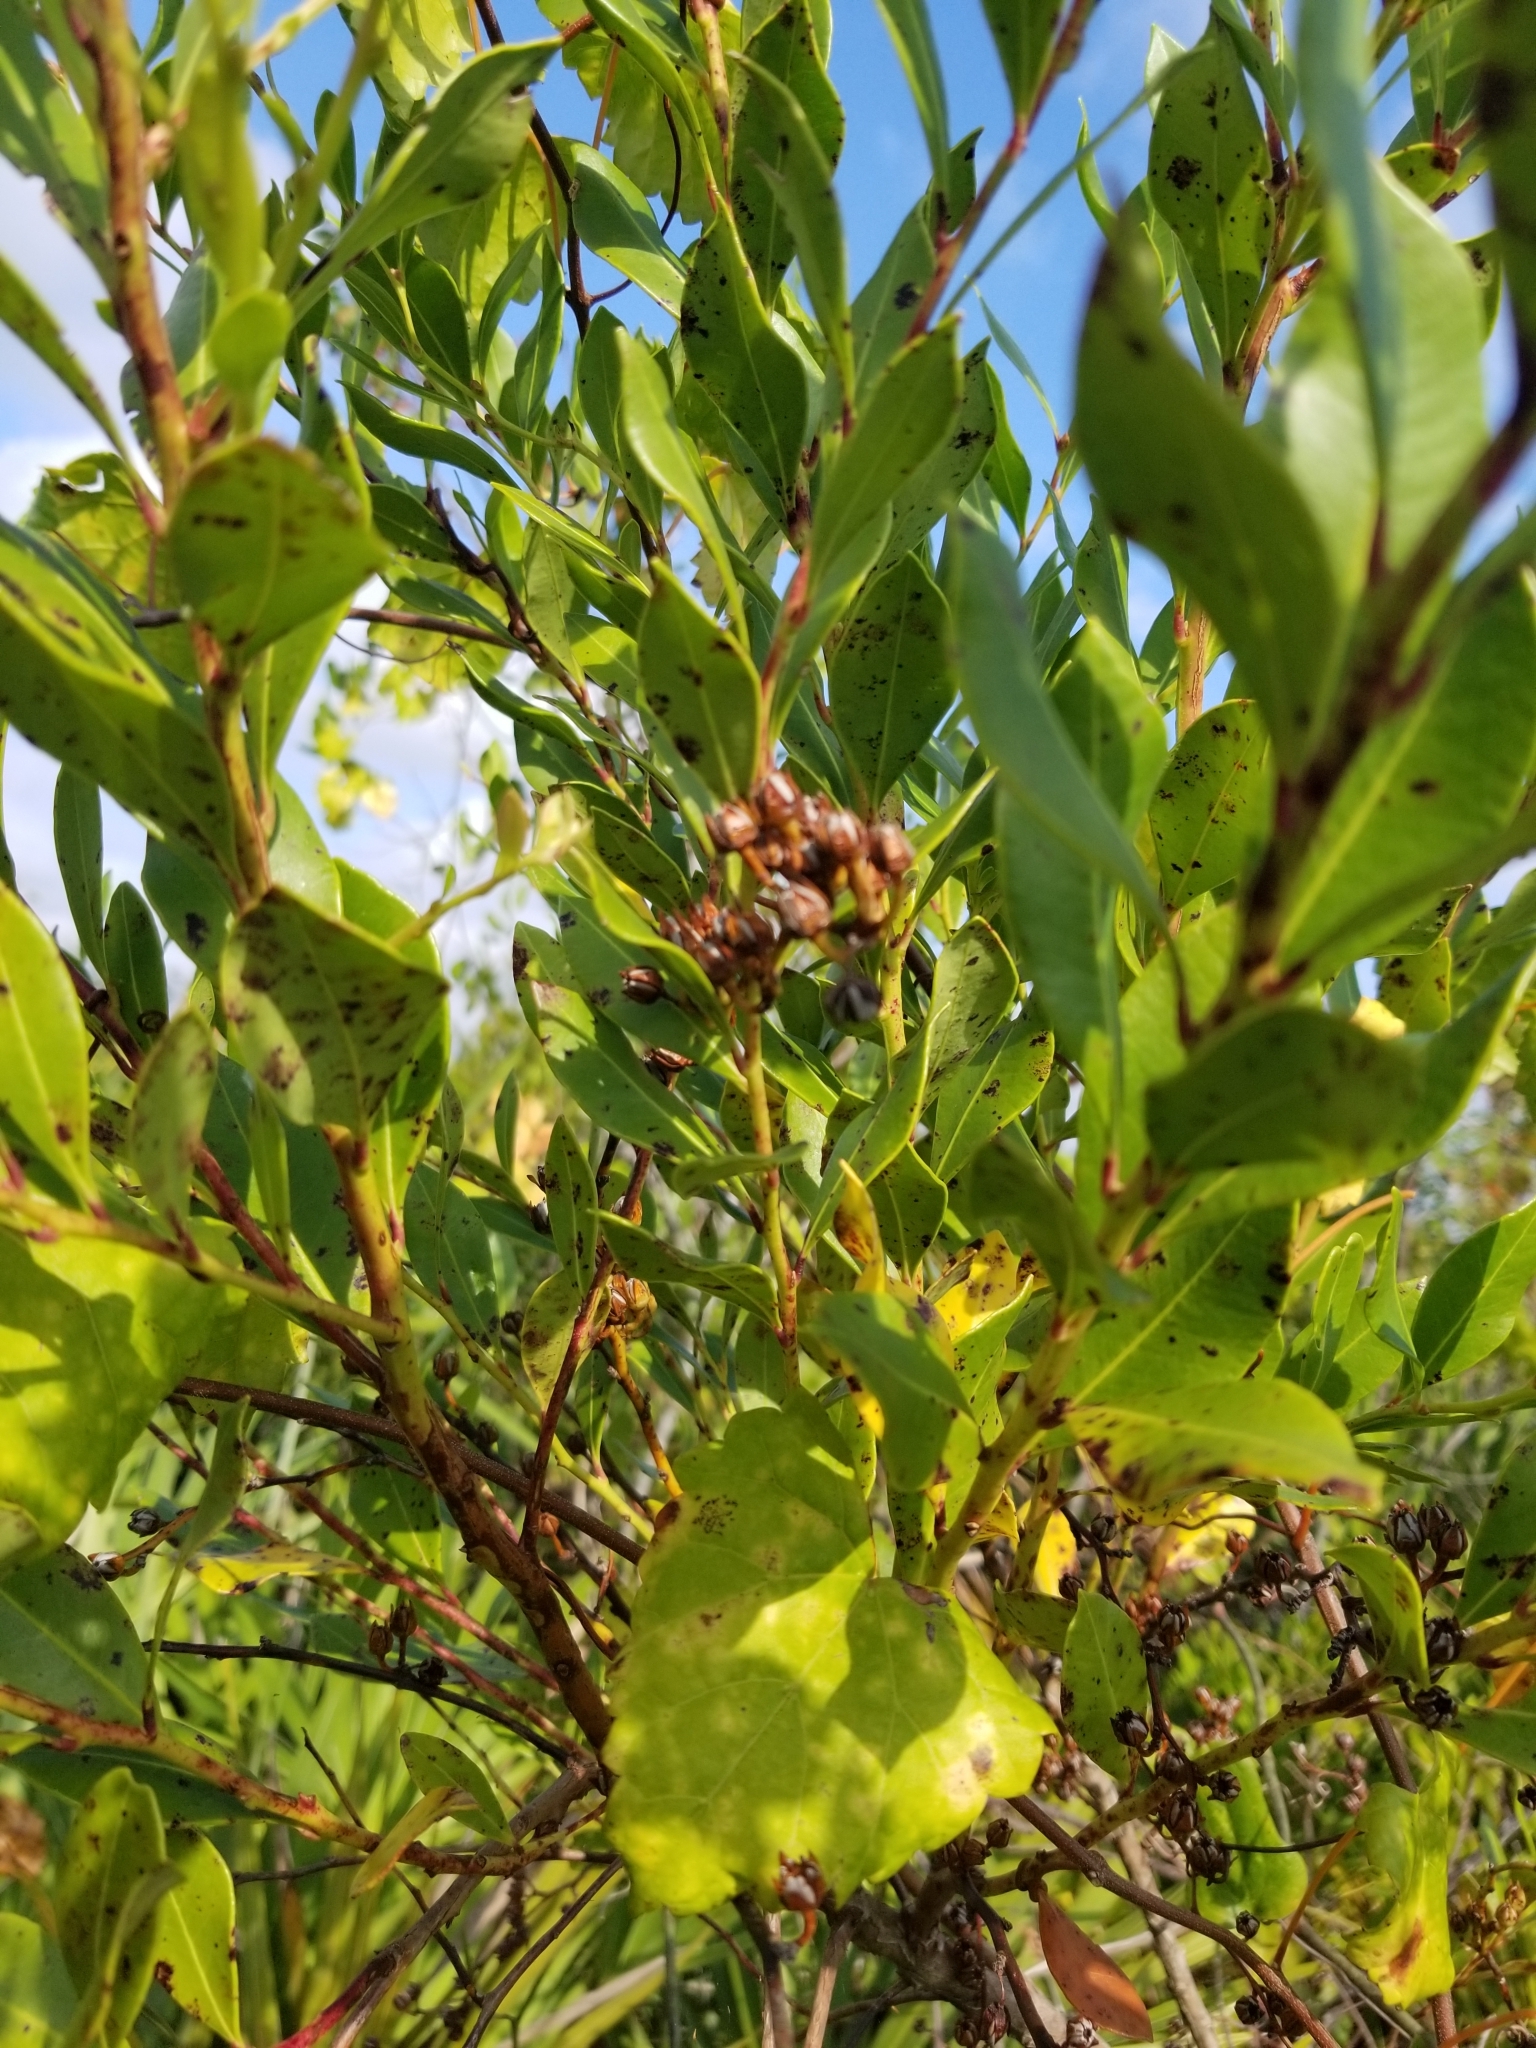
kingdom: Plantae
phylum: Tracheophyta
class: Magnoliopsida
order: Ericales
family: Ericaceae
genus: Lyonia
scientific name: Lyonia lucida
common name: Fetterbush
